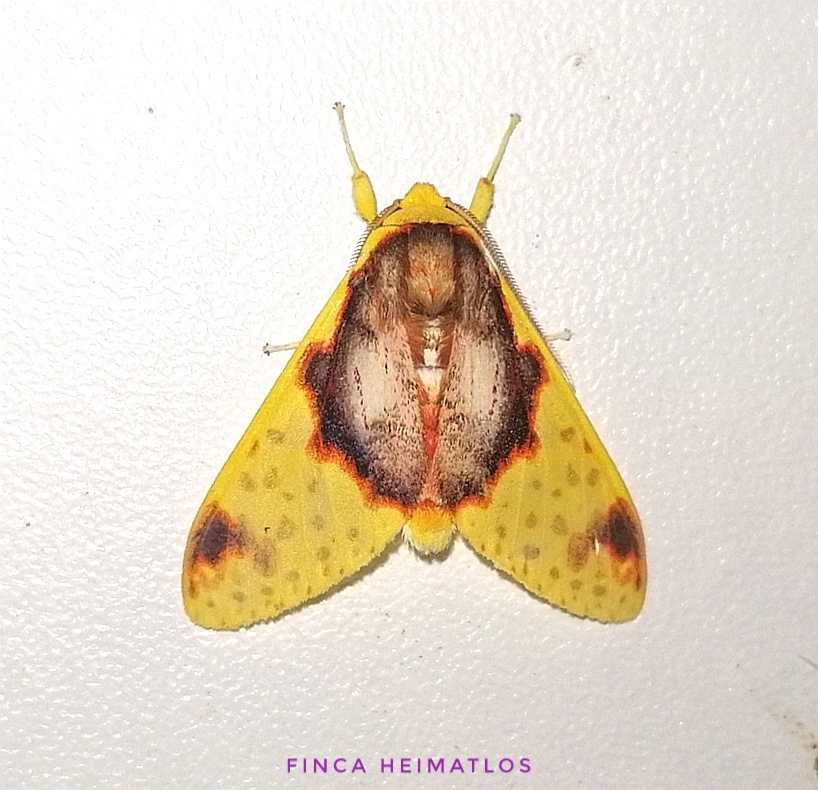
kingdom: Animalia
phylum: Arthropoda
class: Insecta
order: Lepidoptera
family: Erebidae
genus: Amaxia
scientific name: Amaxia flavicollis
